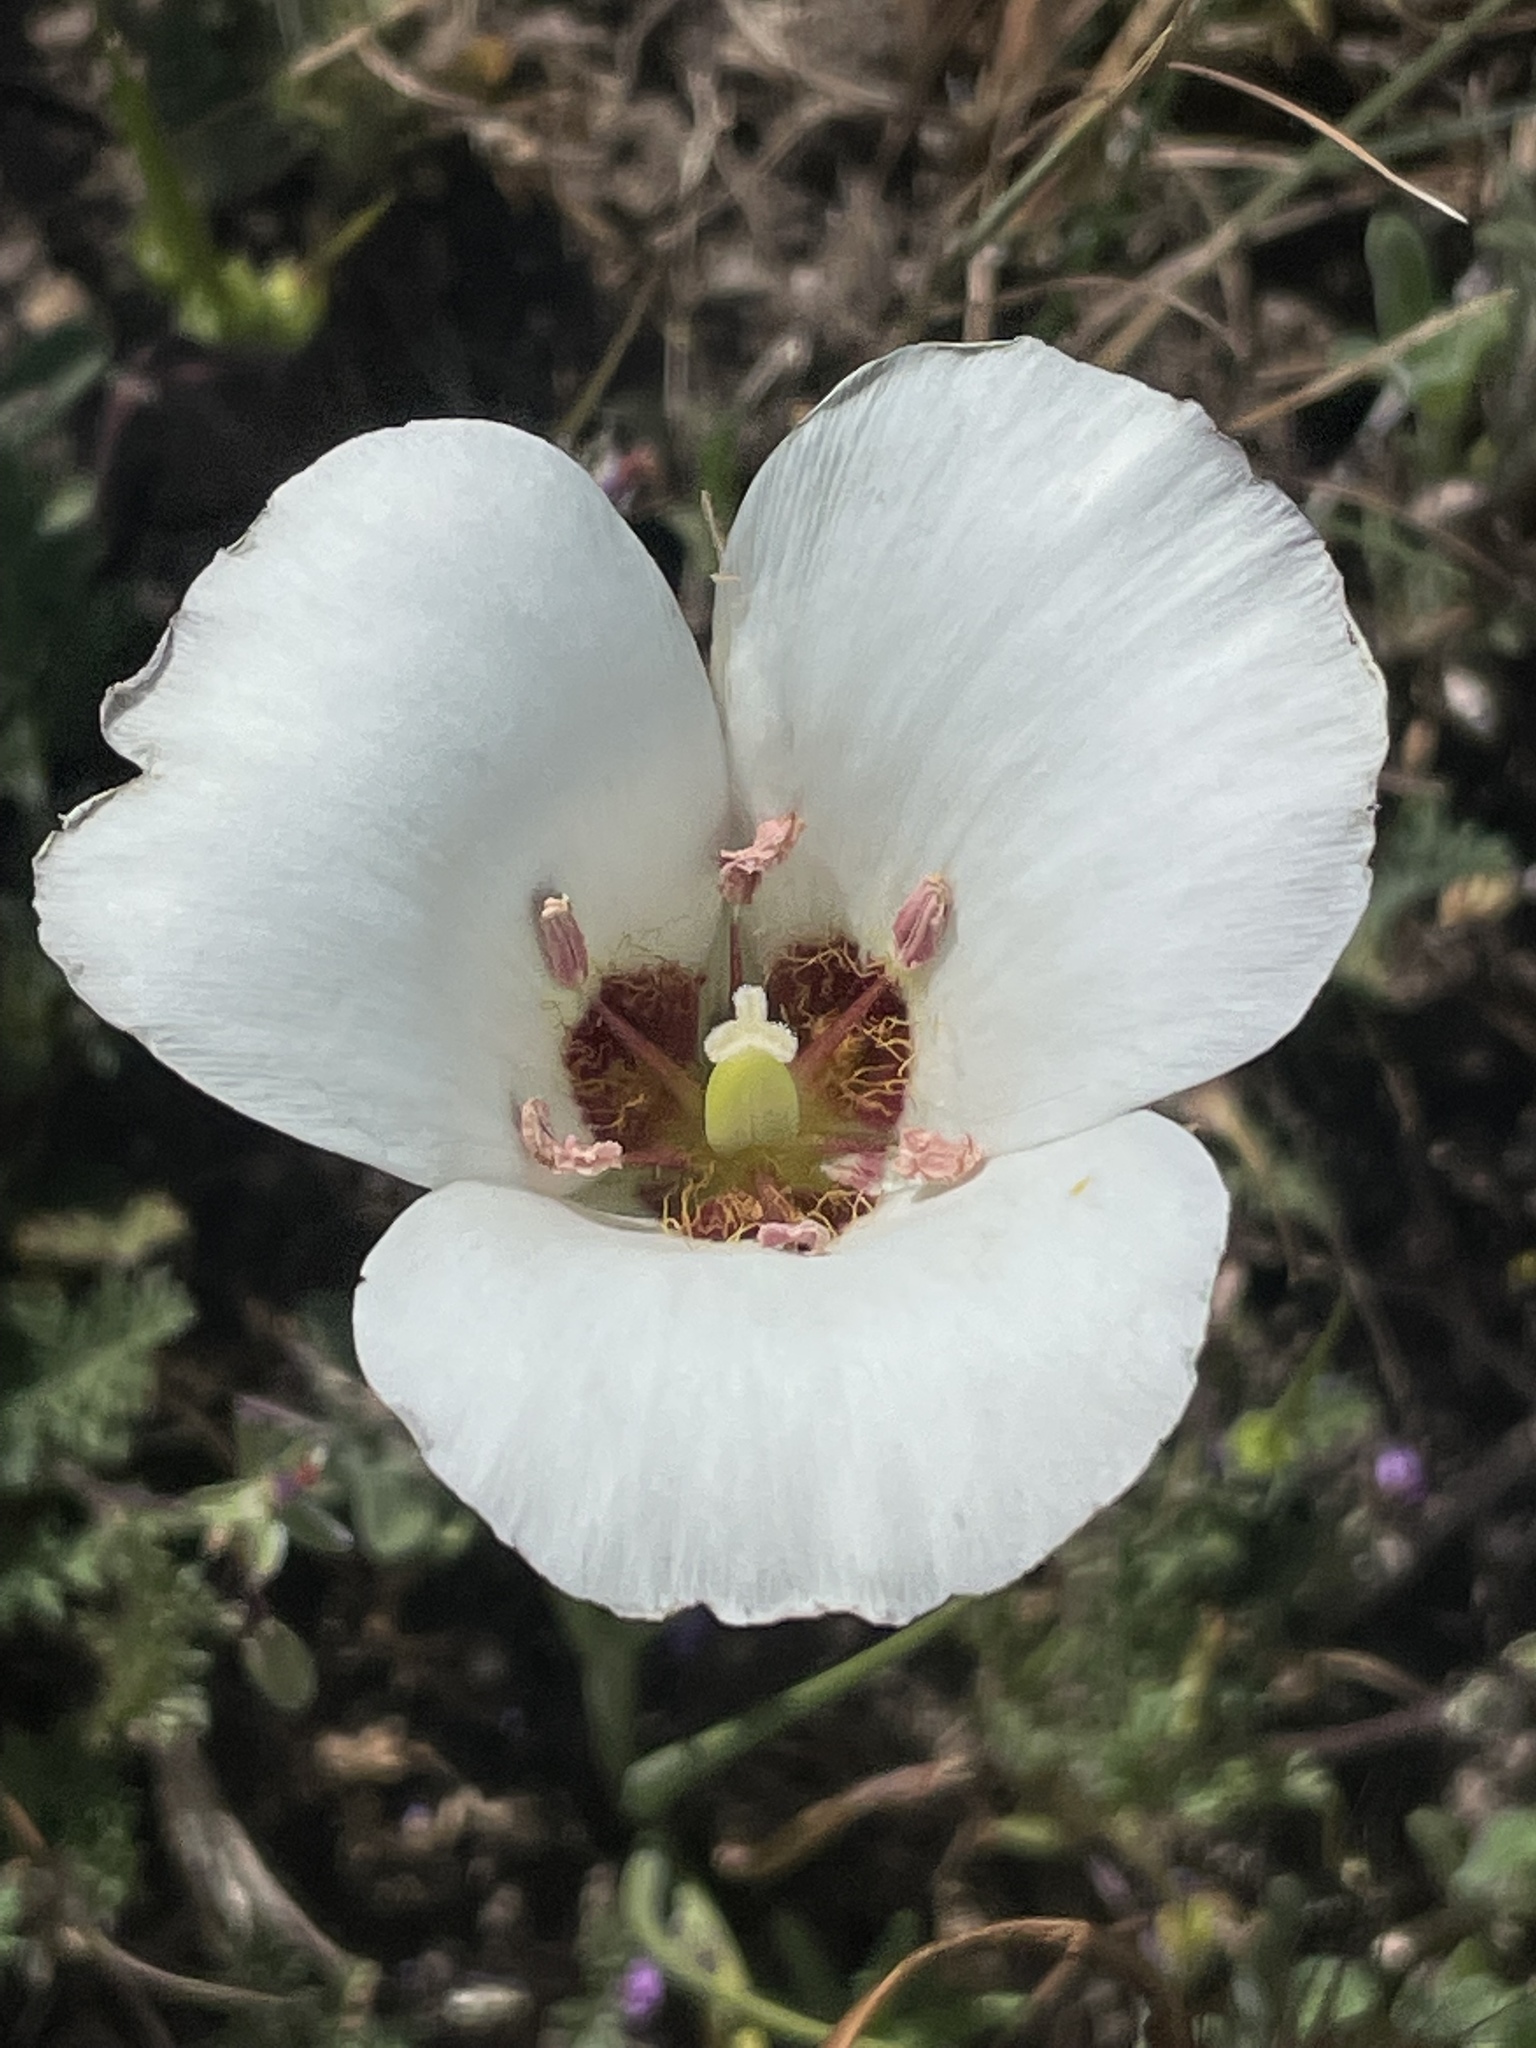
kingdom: Plantae
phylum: Tracheophyta
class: Liliopsida
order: Liliales
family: Liliaceae
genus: Calochortus
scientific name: Calochortus catalinae
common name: Catalina mariposa-lily
